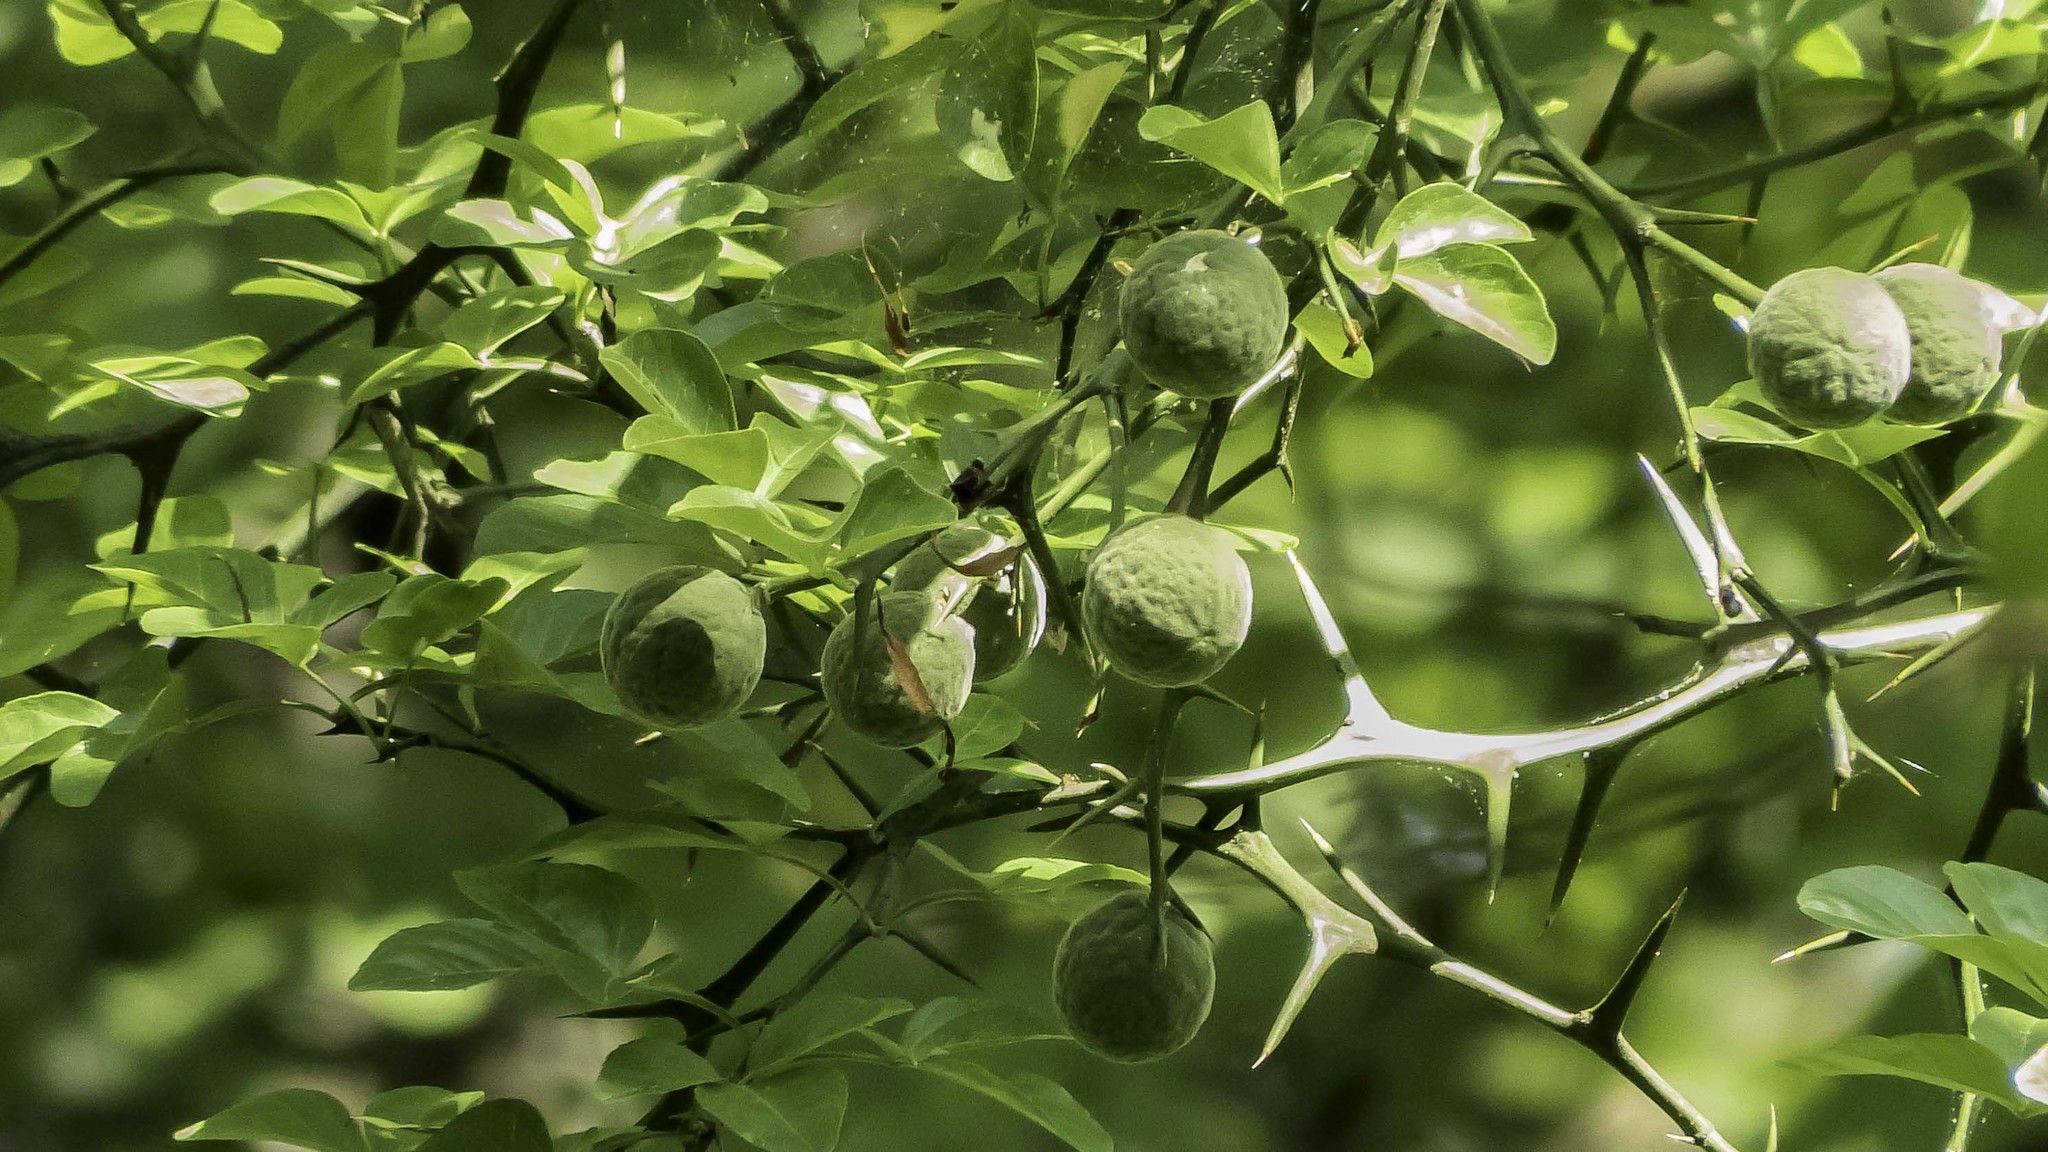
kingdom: Plantae
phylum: Tracheophyta
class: Magnoliopsida
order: Sapindales
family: Rutaceae
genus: Citrus
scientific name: Citrus trifoliata
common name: Japanese bitter-orange
